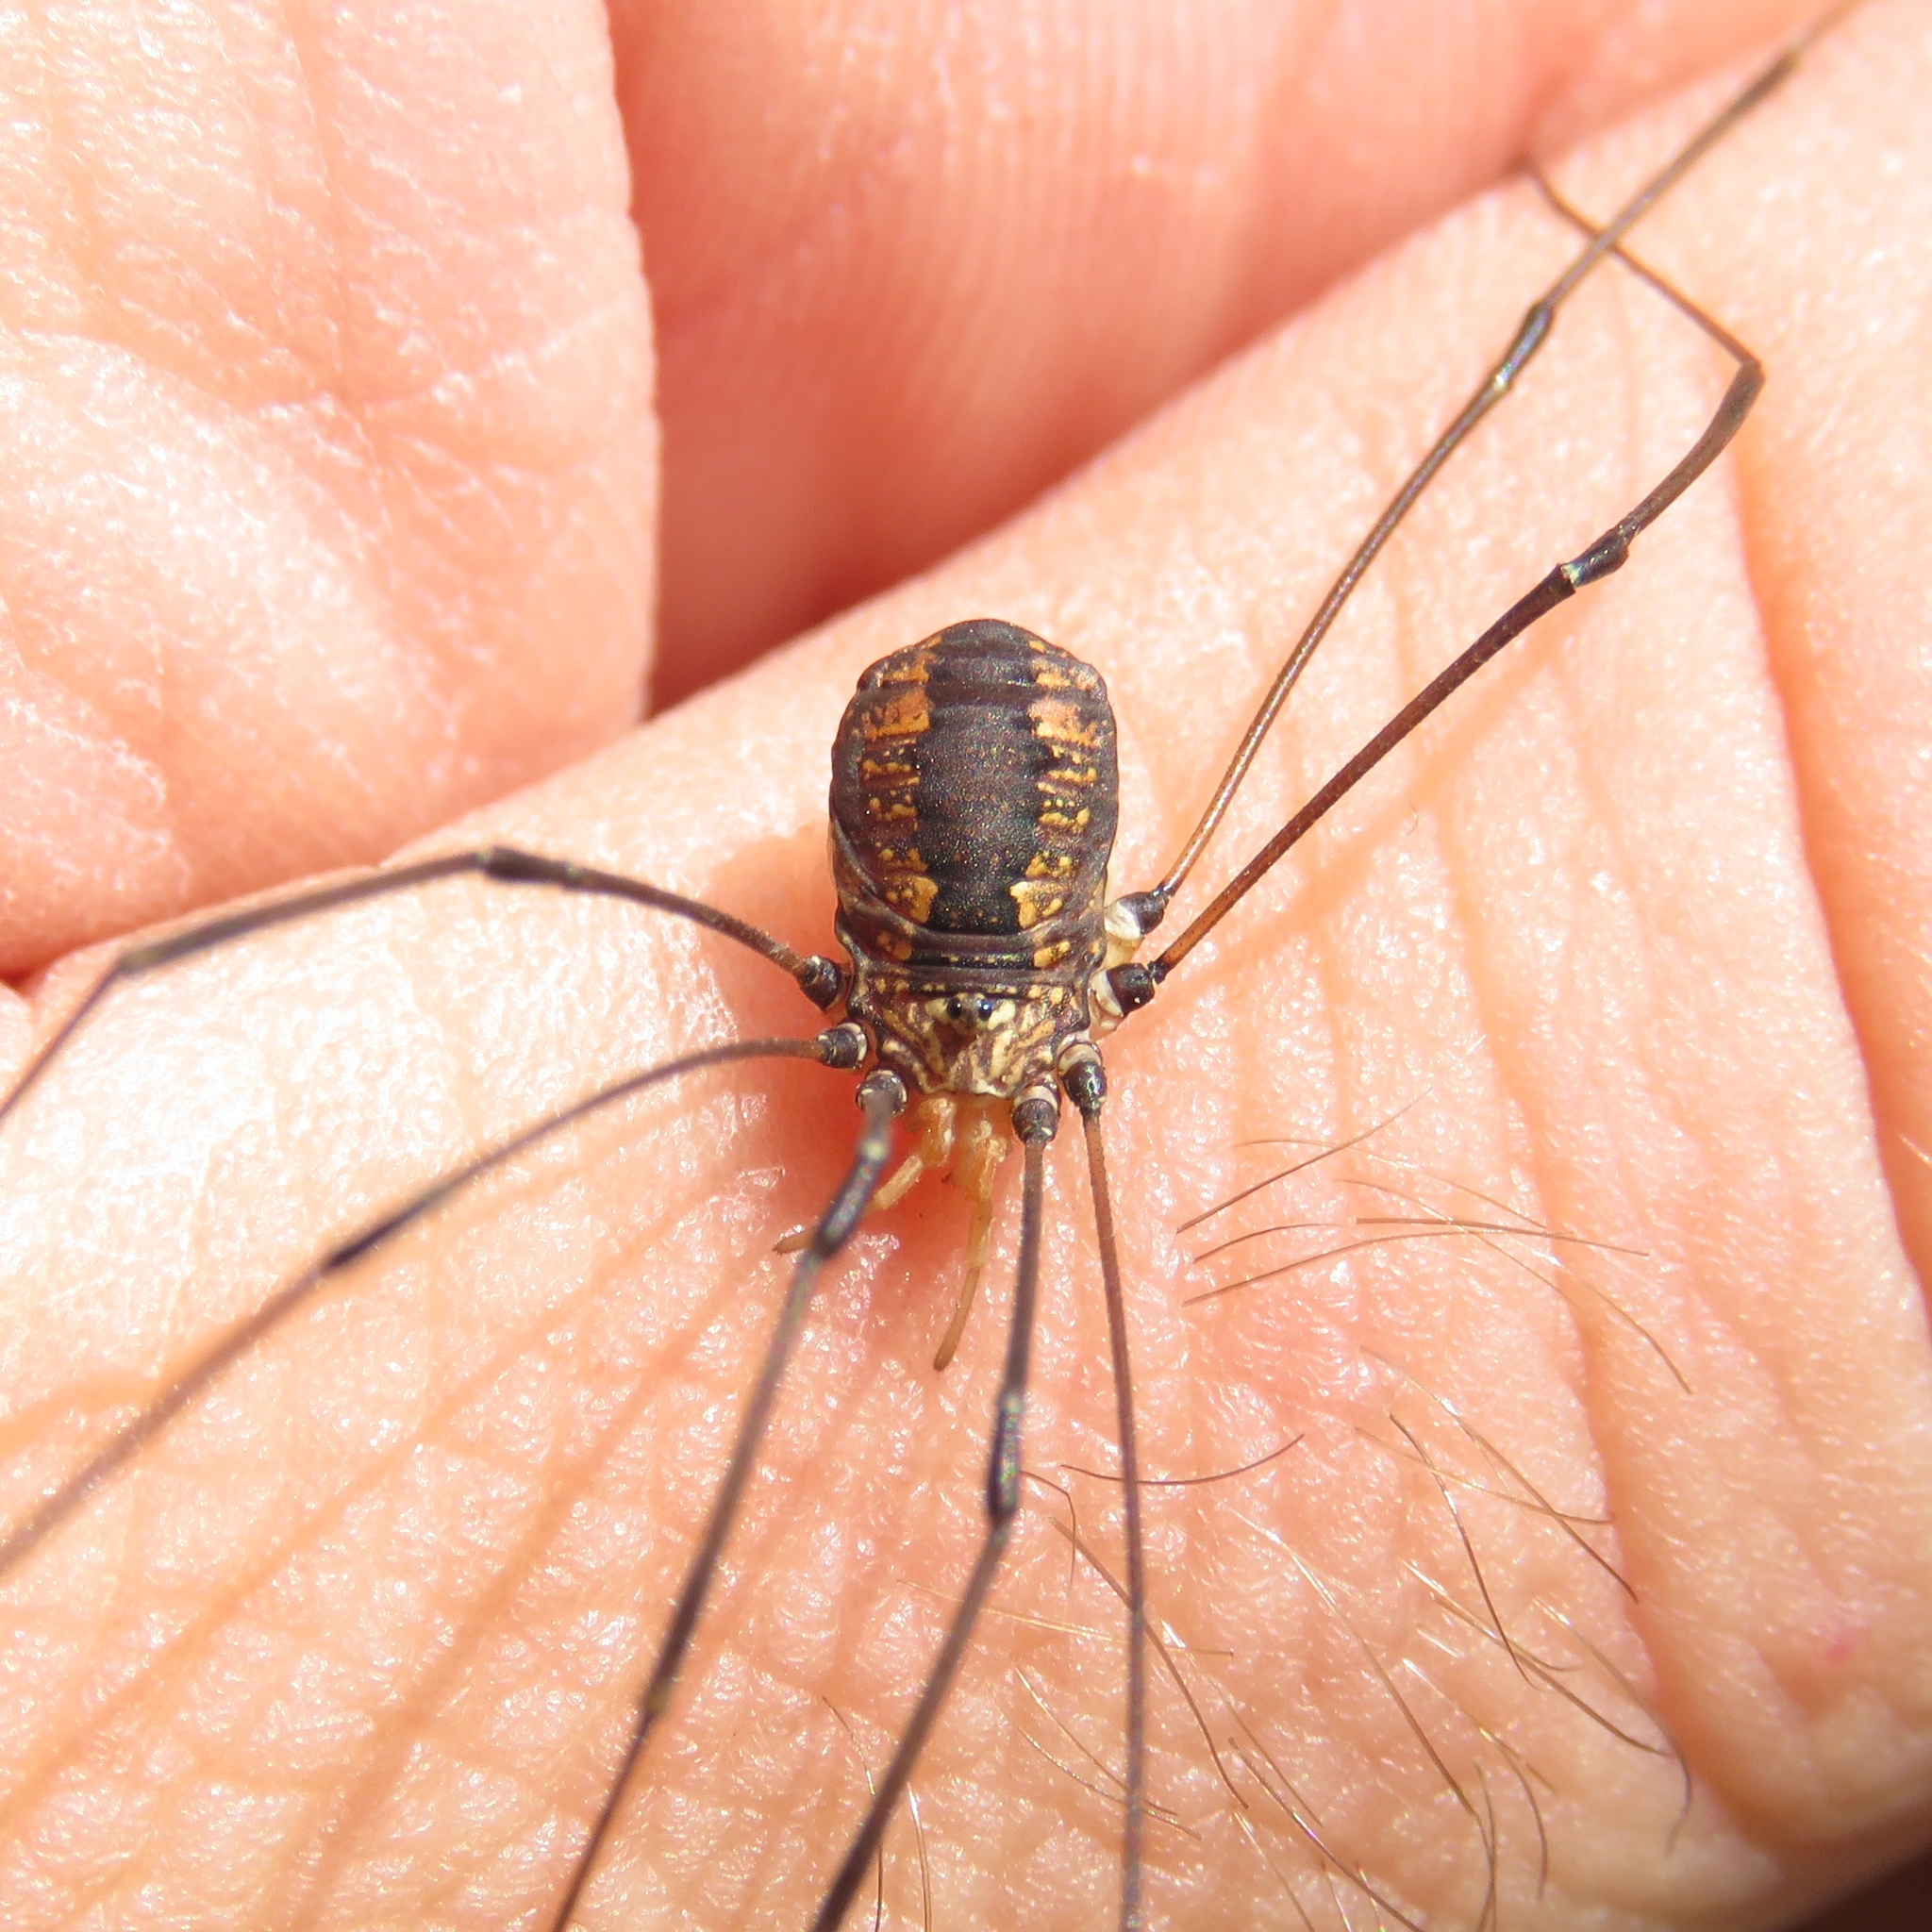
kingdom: Animalia
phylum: Arthropoda
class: Arachnida
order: Opiliones
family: Sclerosomatidae
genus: Leiobunum
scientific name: Leiobunum vittatum
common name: Eastern harvestman
